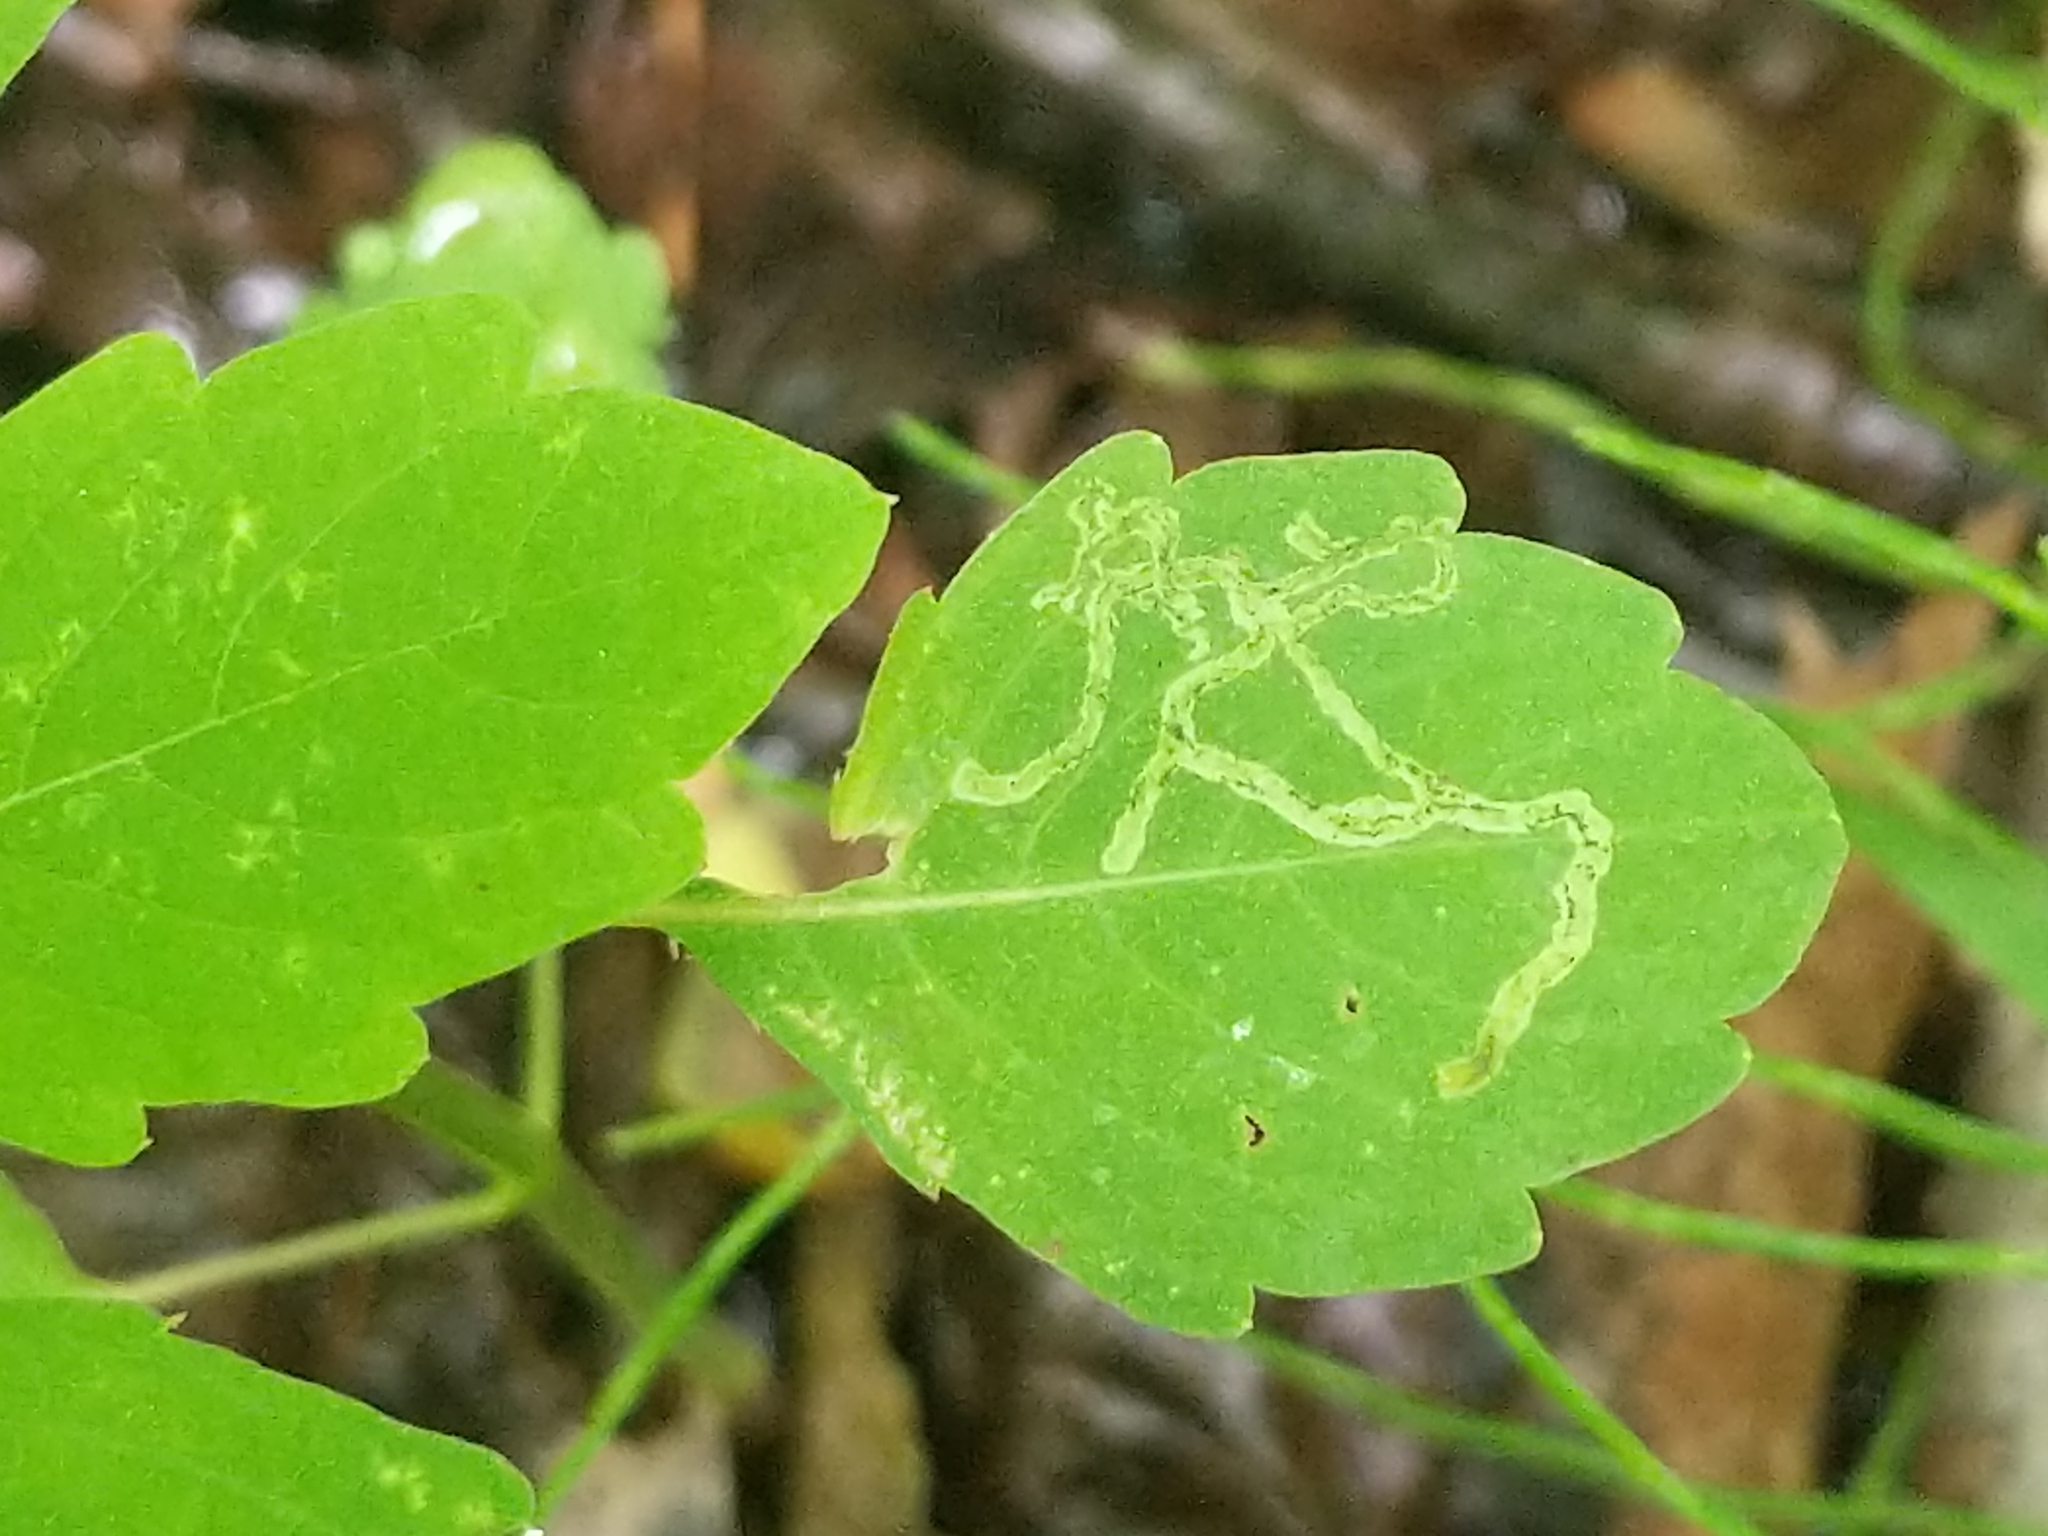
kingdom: Animalia
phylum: Arthropoda
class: Insecta
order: Diptera
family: Agromyzidae
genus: Phytoliriomyza
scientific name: Phytoliriomyza melampyga
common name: Jewelweed leaf-miner fly
